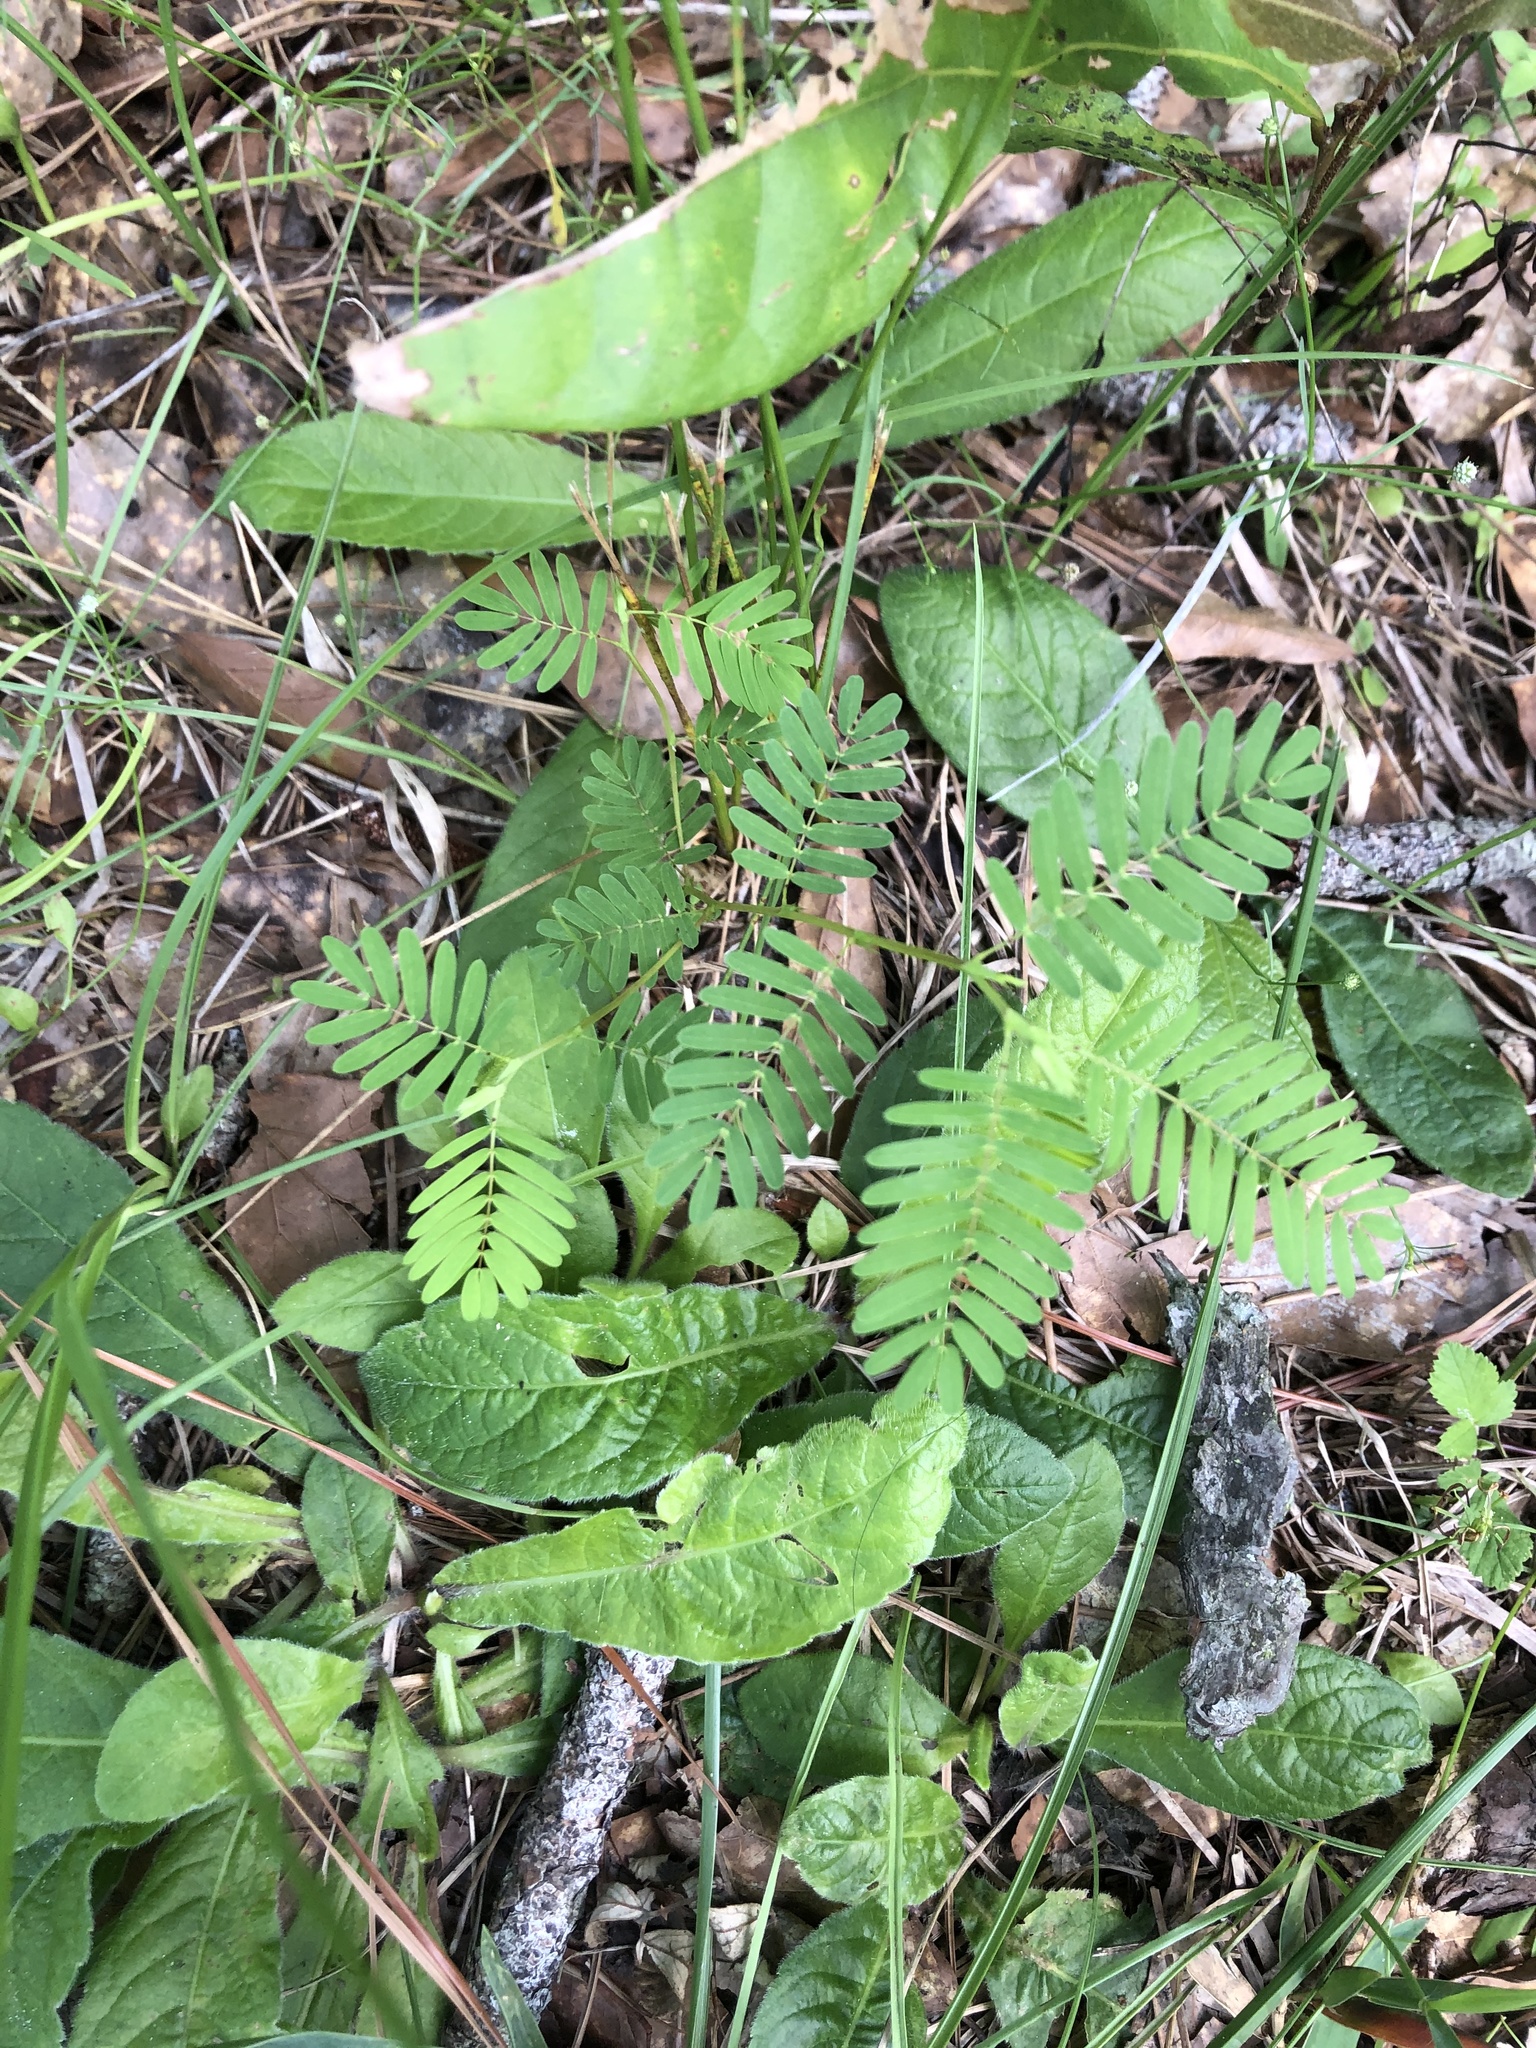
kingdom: Plantae
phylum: Tracheophyta
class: Magnoliopsida
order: Fabales
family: Fabaceae
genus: Chamaecrista
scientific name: Chamaecrista fasciculata
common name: Golden cassia
